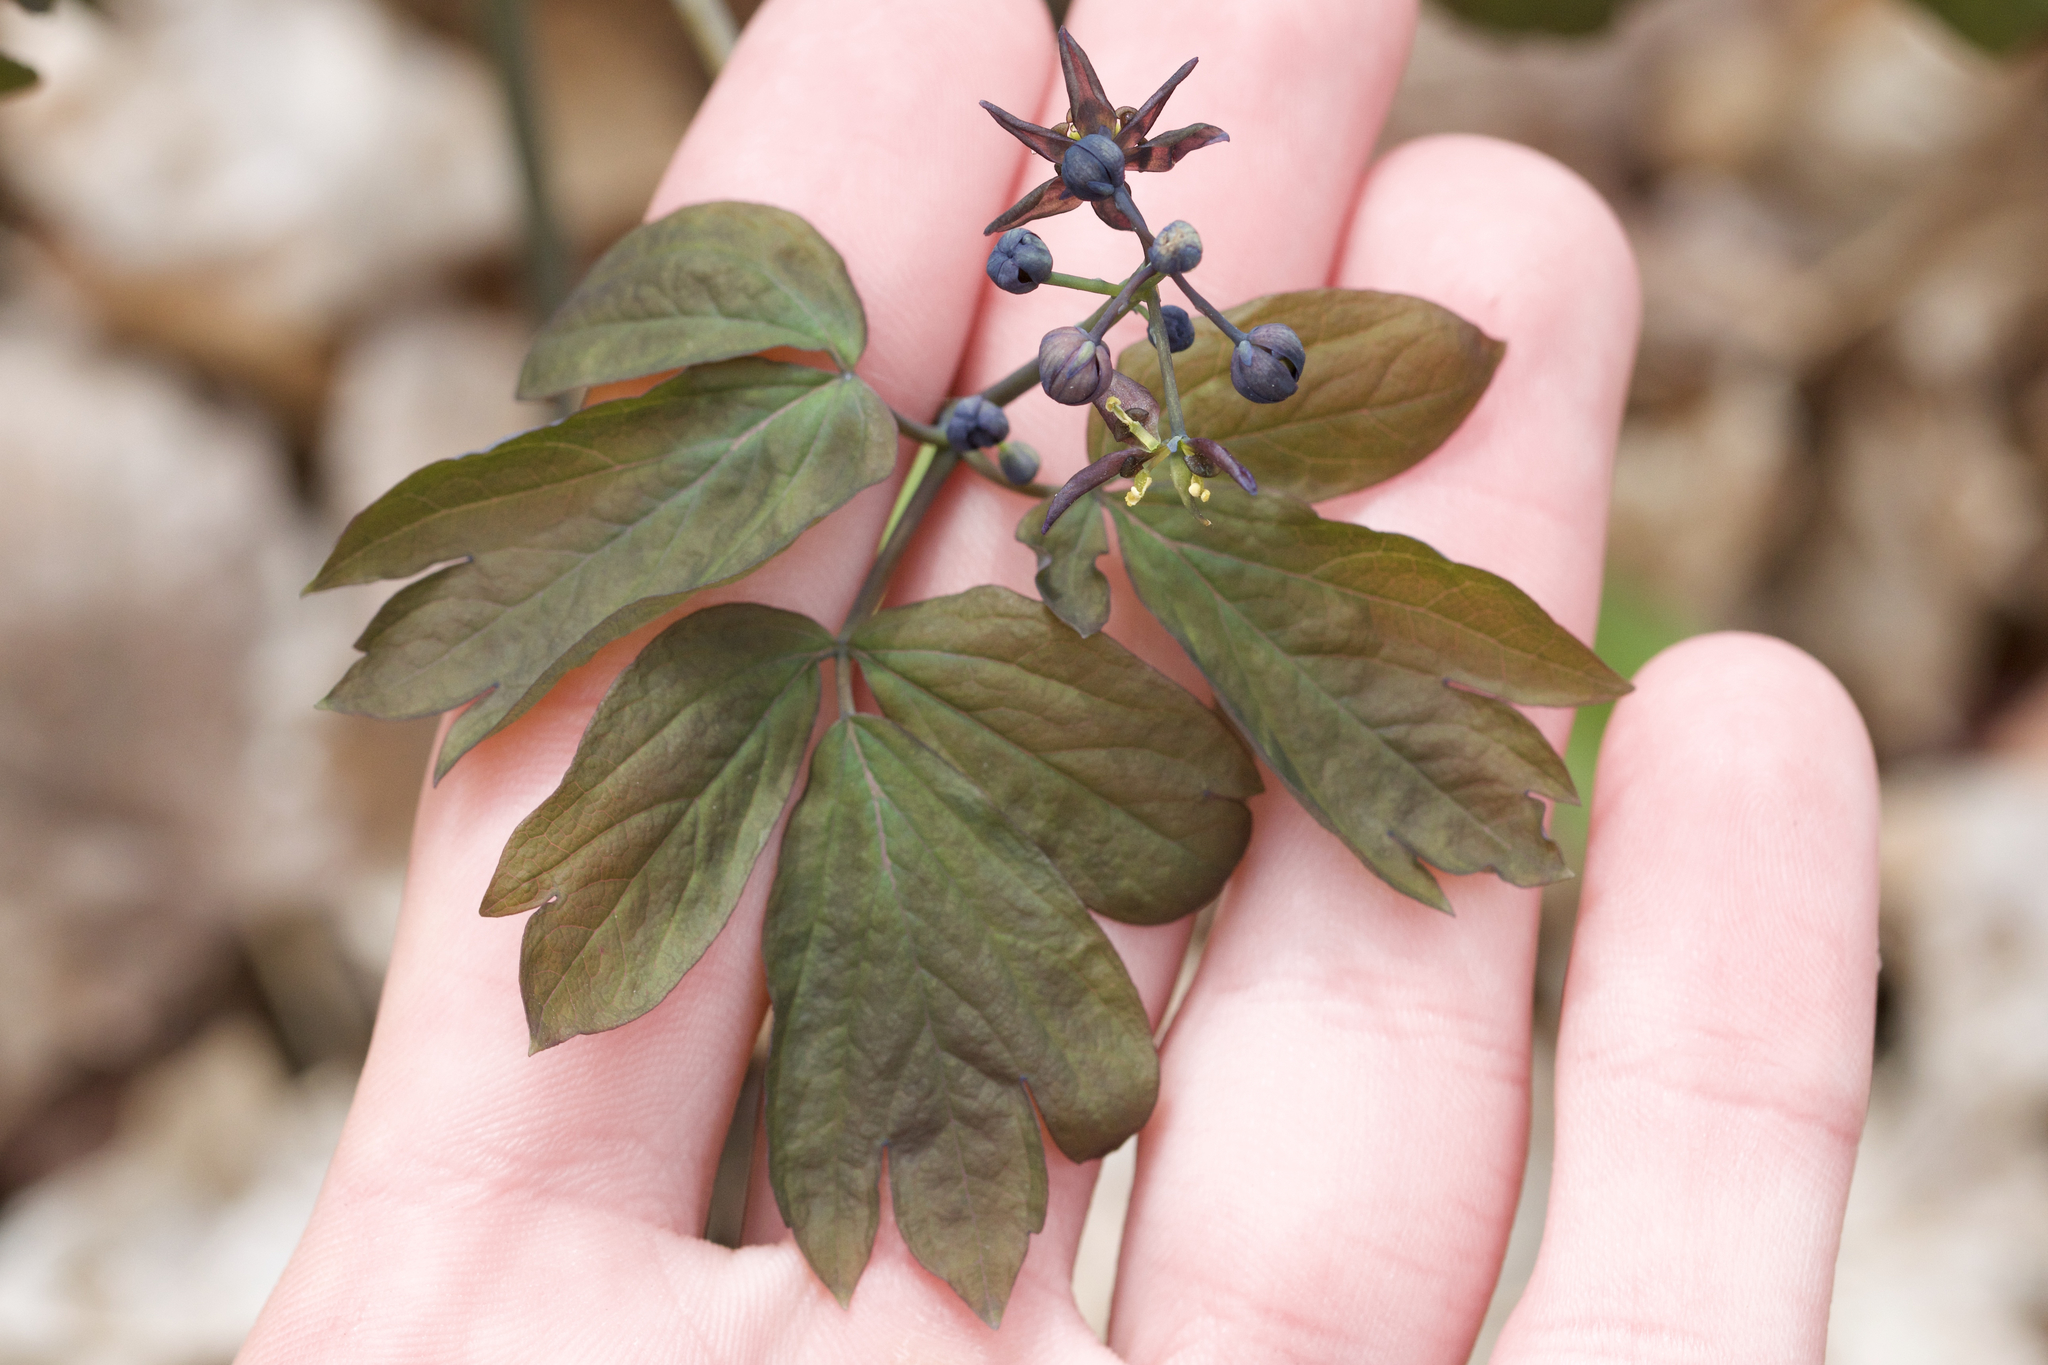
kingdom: Plantae
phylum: Tracheophyta
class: Magnoliopsida
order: Ranunculales
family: Berberidaceae
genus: Caulophyllum
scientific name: Caulophyllum giganteum
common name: Blue cohosh
